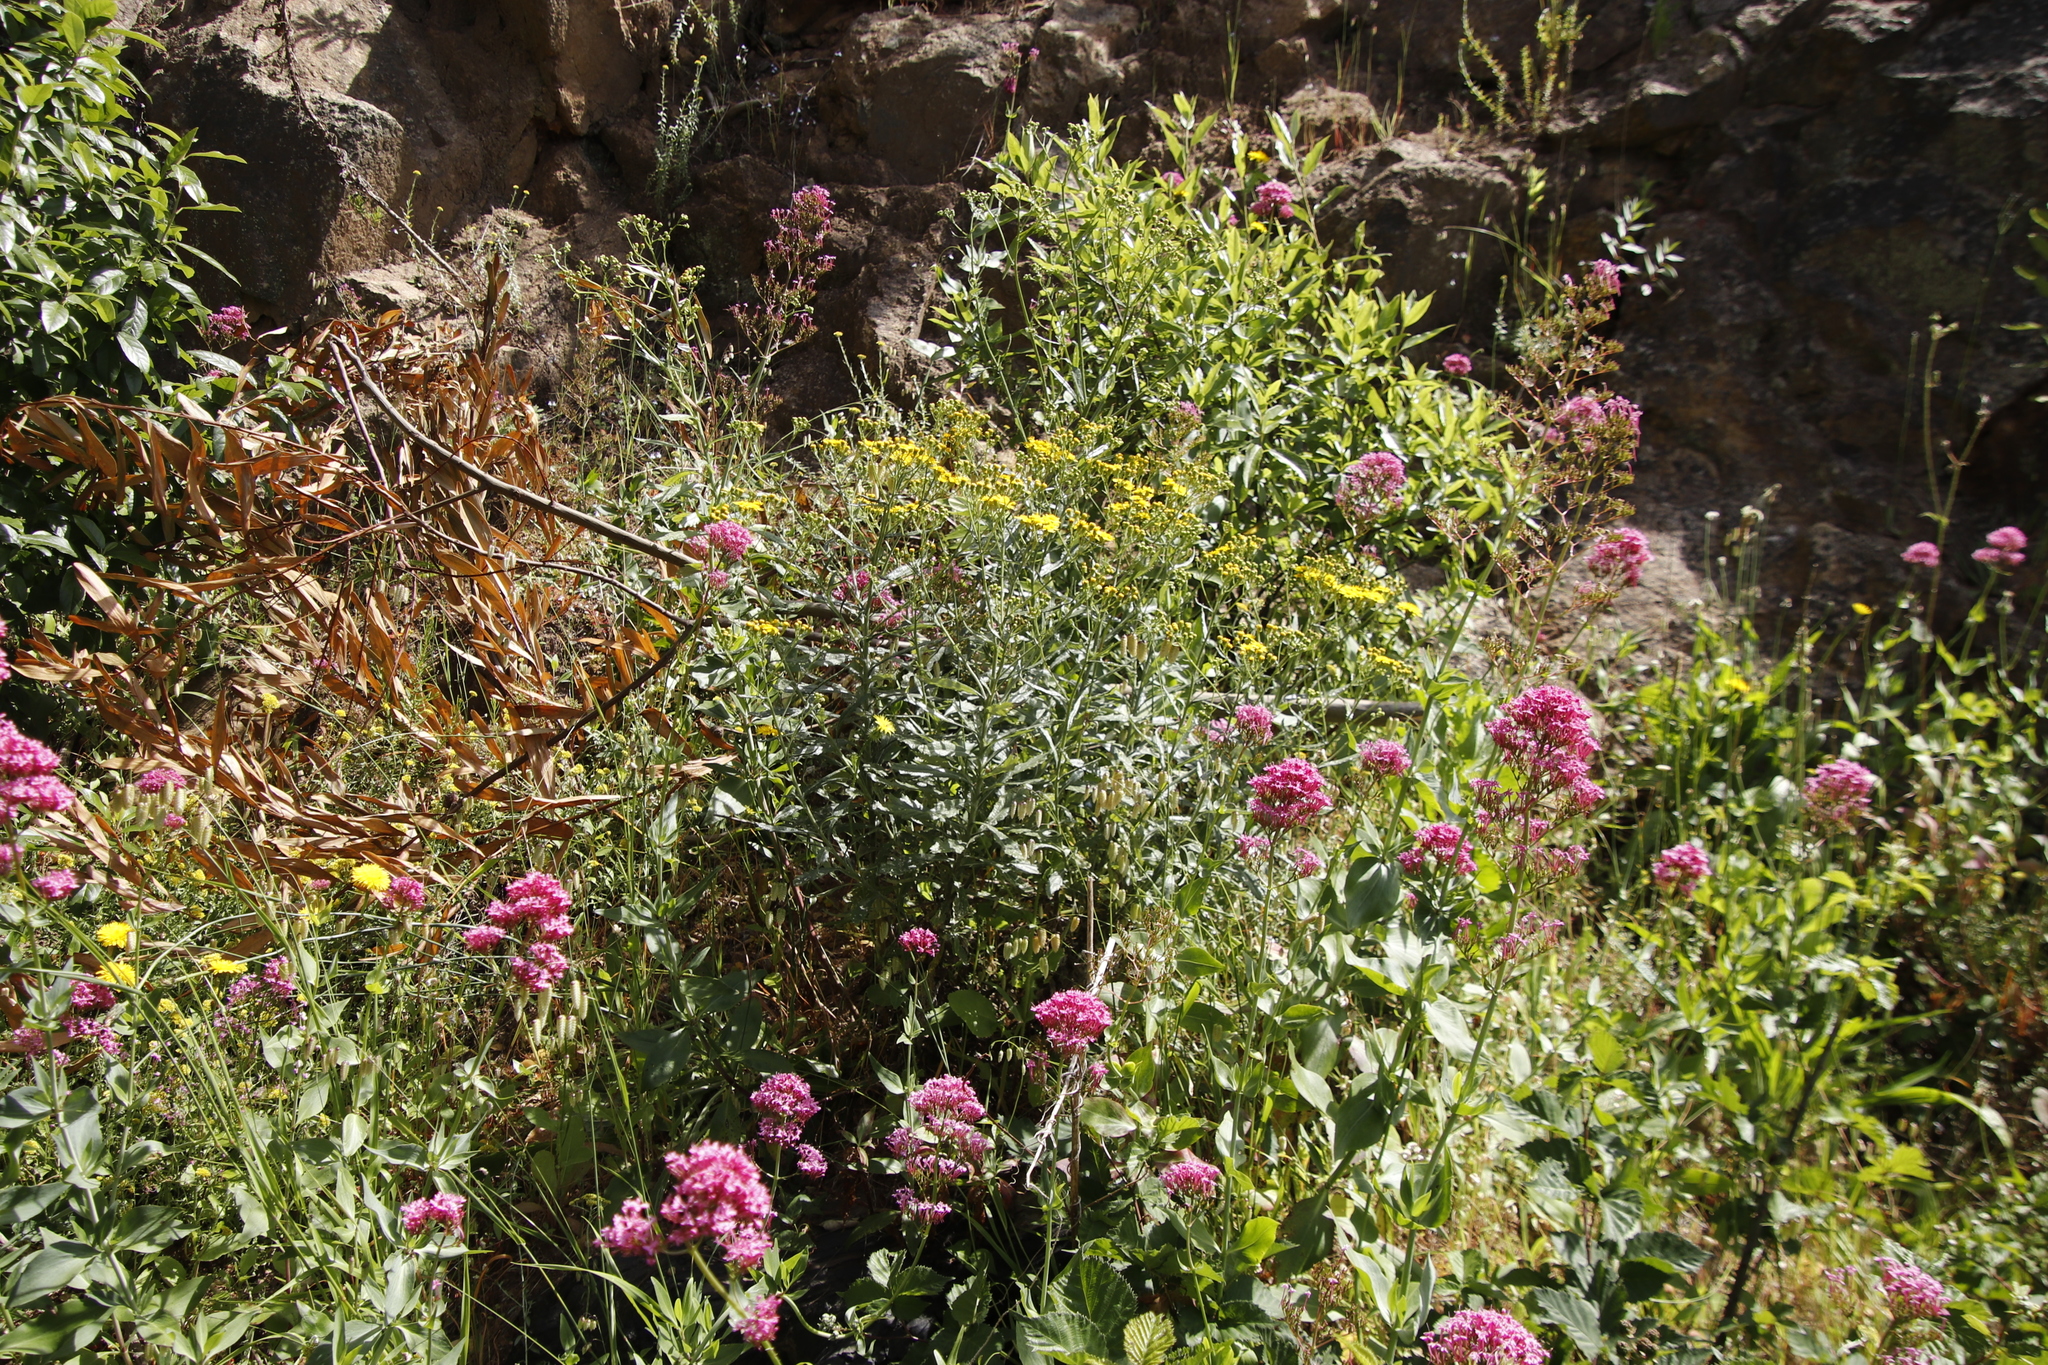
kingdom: Plantae
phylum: Tracheophyta
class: Magnoliopsida
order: Dipsacales
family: Caprifoliaceae
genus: Centranthus
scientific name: Centranthus ruber
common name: Red valerian
